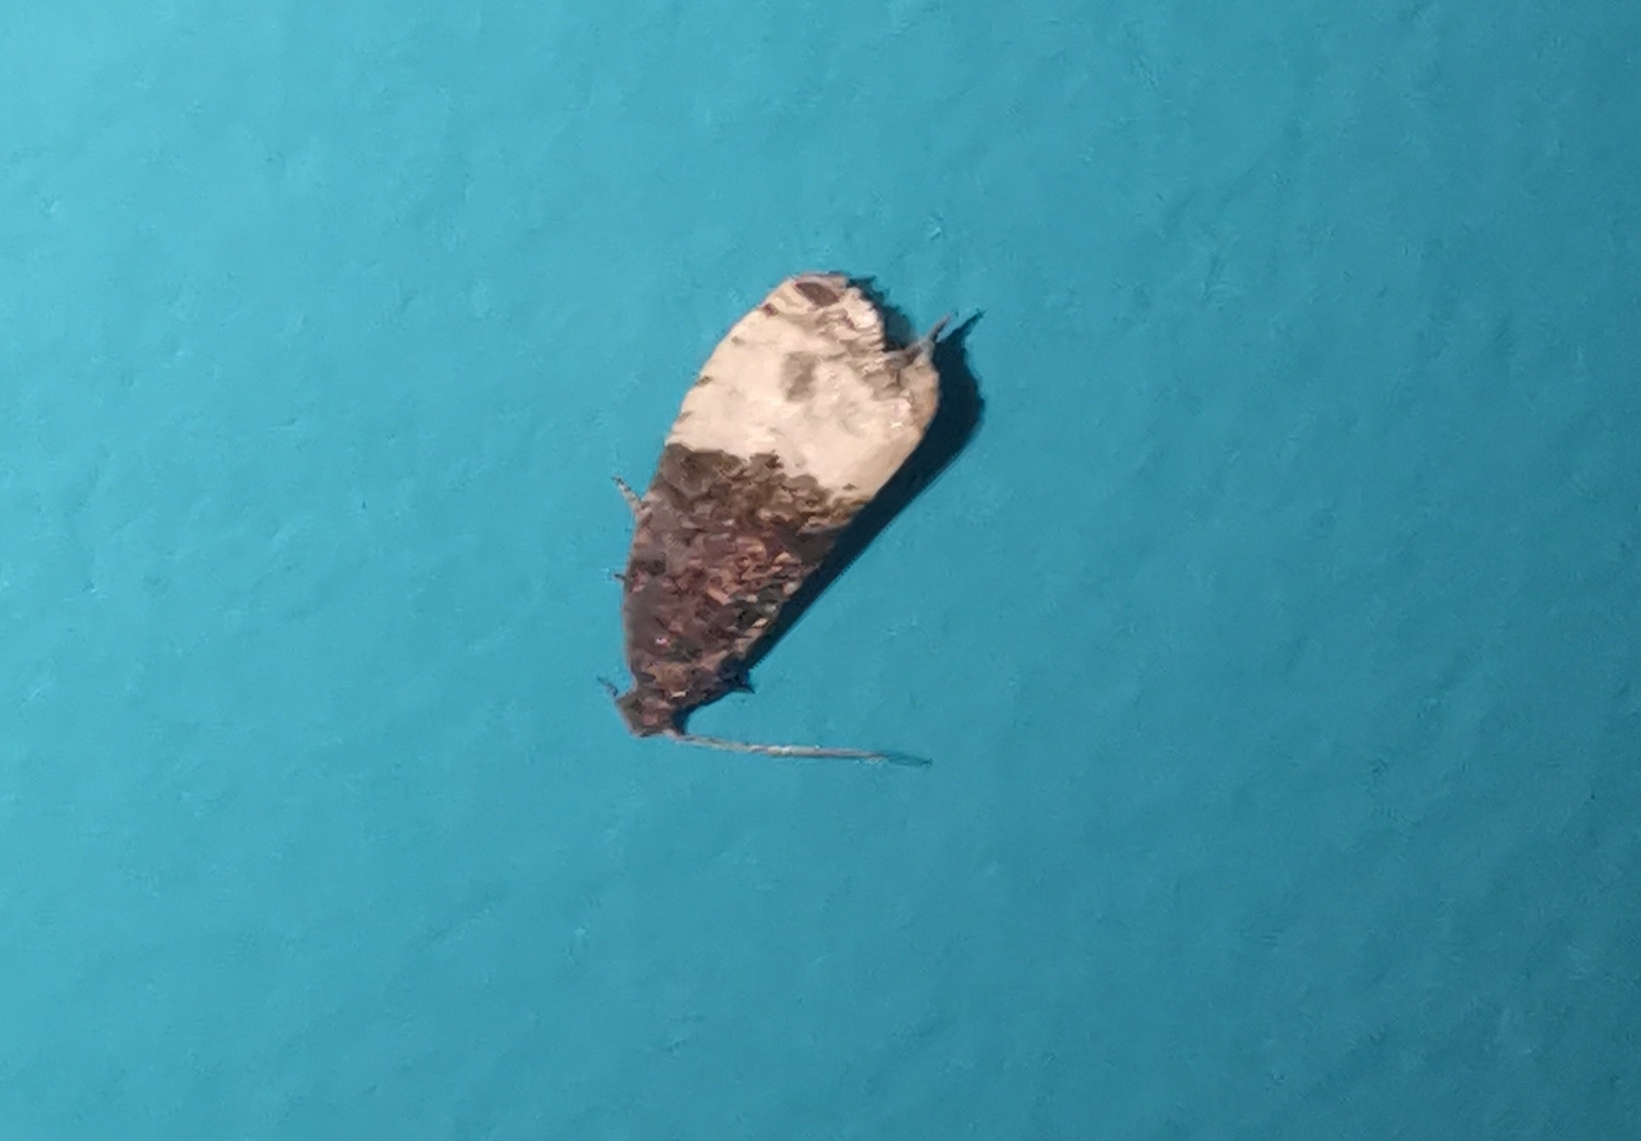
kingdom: Animalia
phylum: Arthropoda
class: Insecta
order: Lepidoptera
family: Tortricidae
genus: Hedya
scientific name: Hedya pruniana
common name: Plum tortrix
